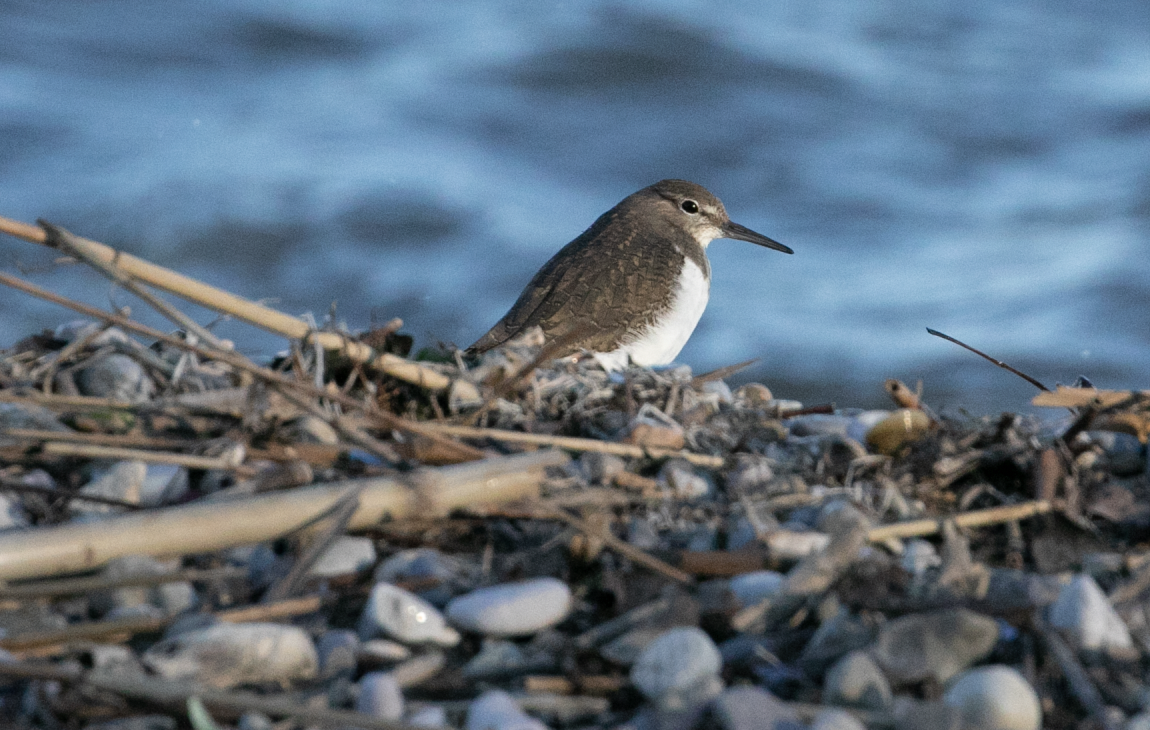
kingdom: Animalia
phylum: Chordata
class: Aves
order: Charadriiformes
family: Scolopacidae
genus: Actitis
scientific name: Actitis hypoleucos
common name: Common sandpiper
